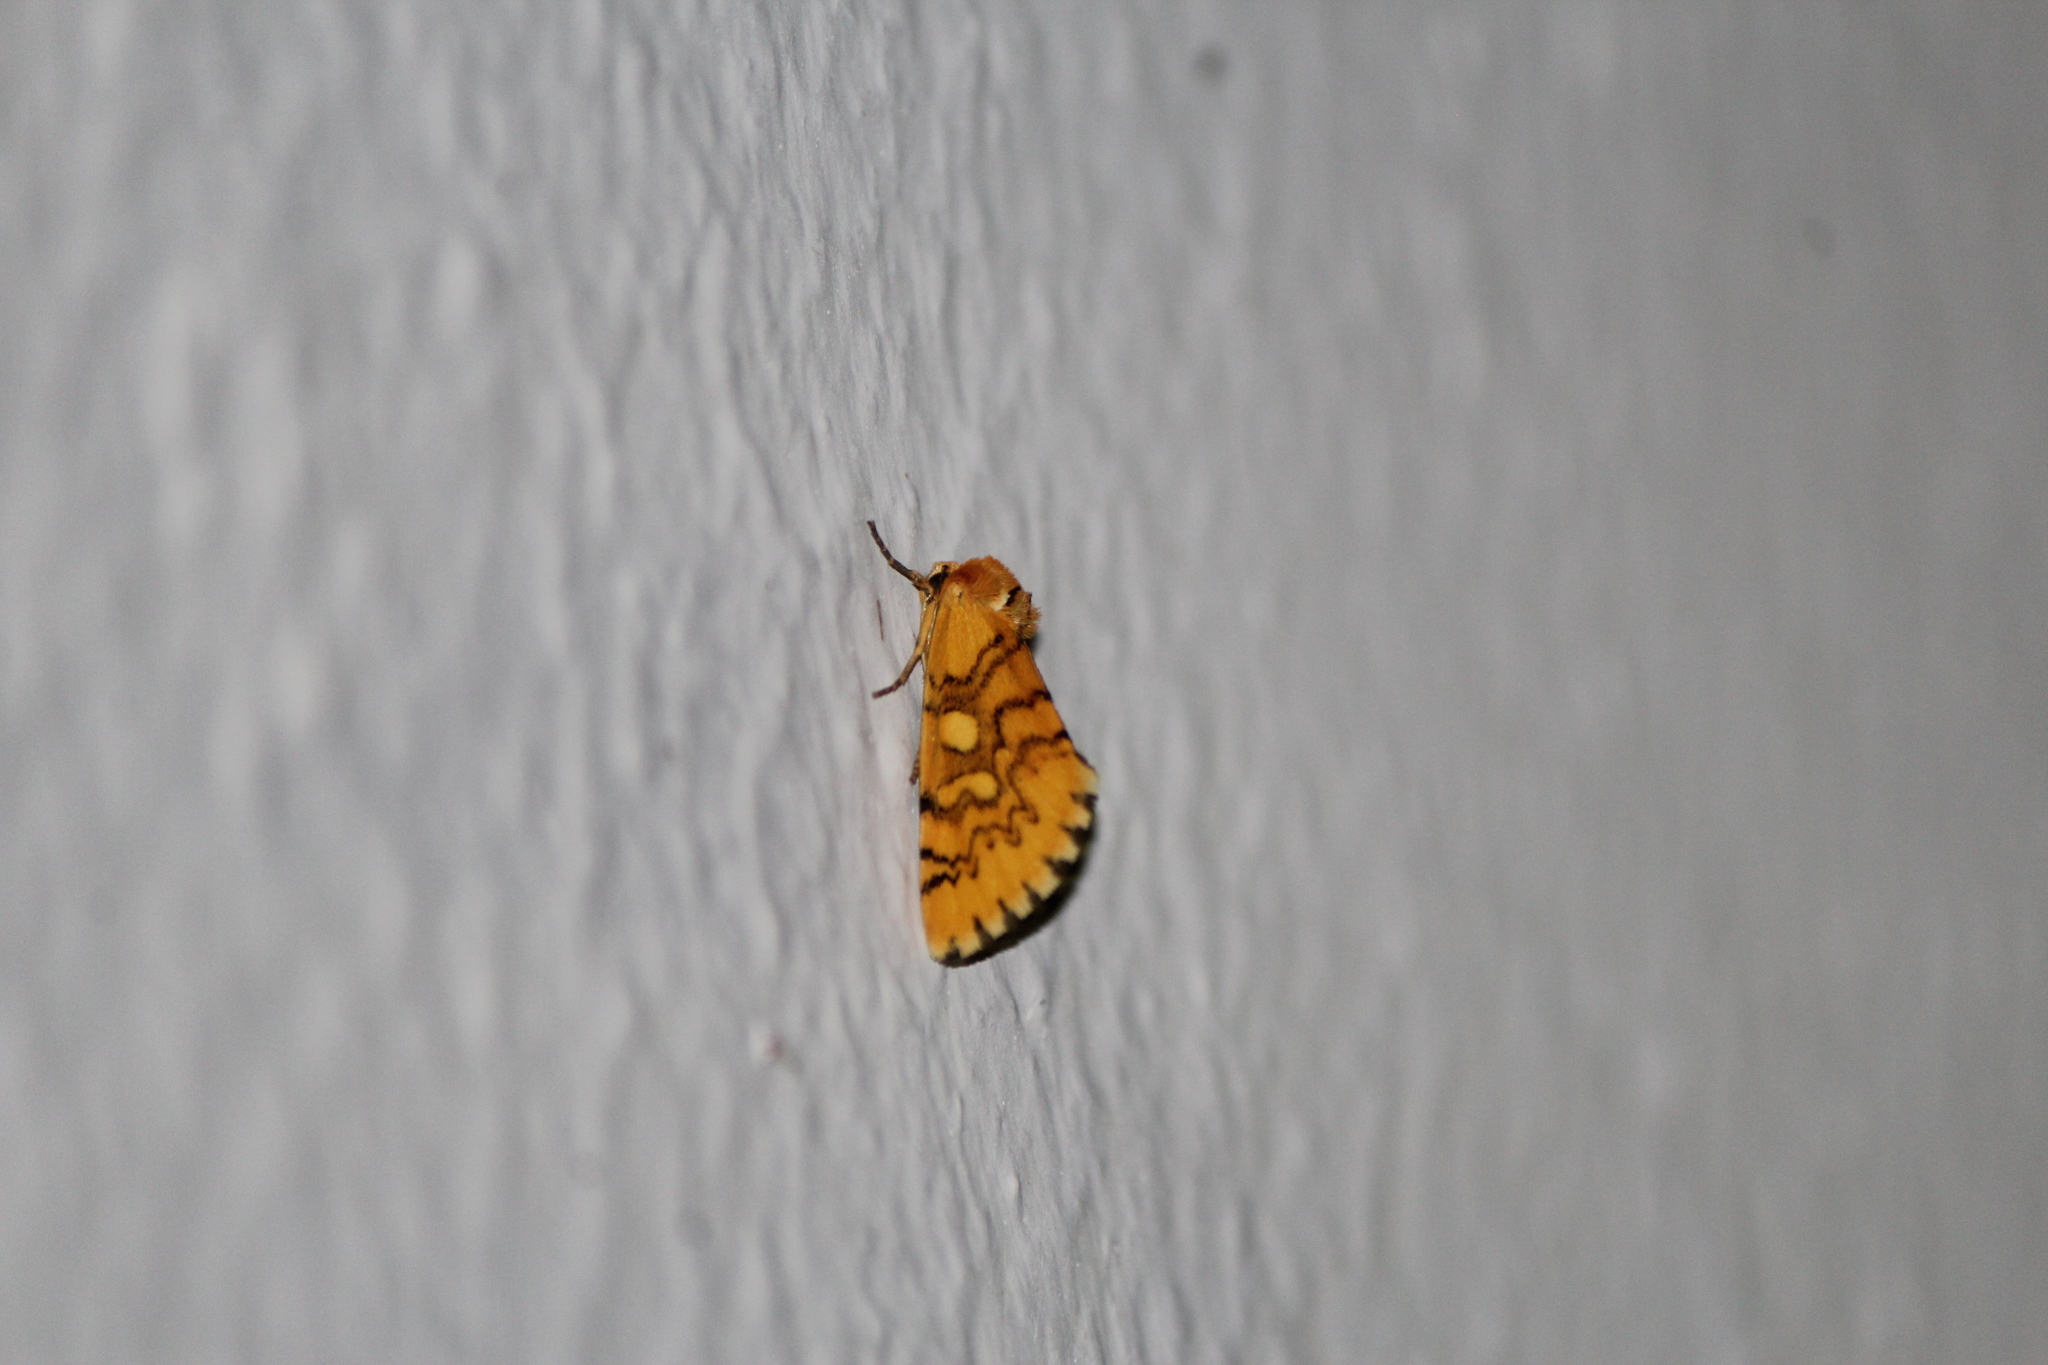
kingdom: Animalia
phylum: Arthropoda
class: Insecta
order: Lepidoptera
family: Noctuidae
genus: Chrysoecia
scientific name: Chrysoecia
